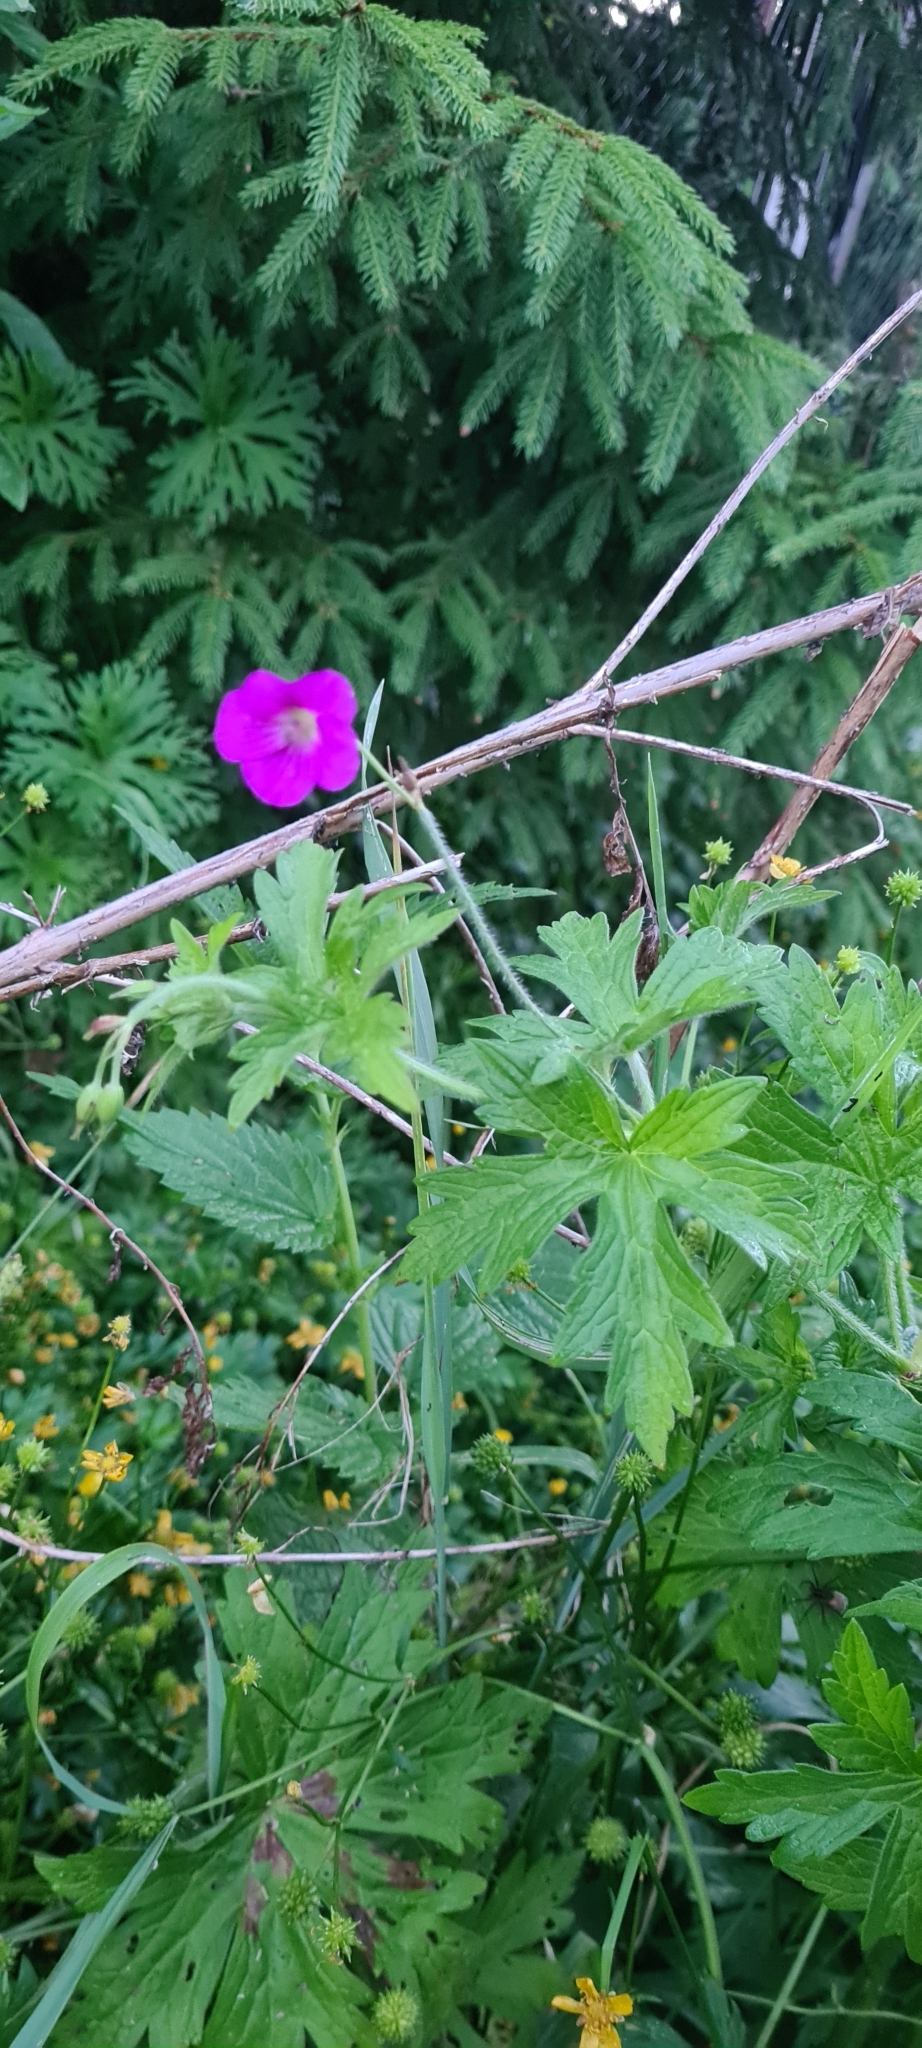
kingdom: Plantae
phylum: Tracheophyta
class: Magnoliopsida
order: Geraniales
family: Geraniaceae
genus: Geranium
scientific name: Geranium palustre
